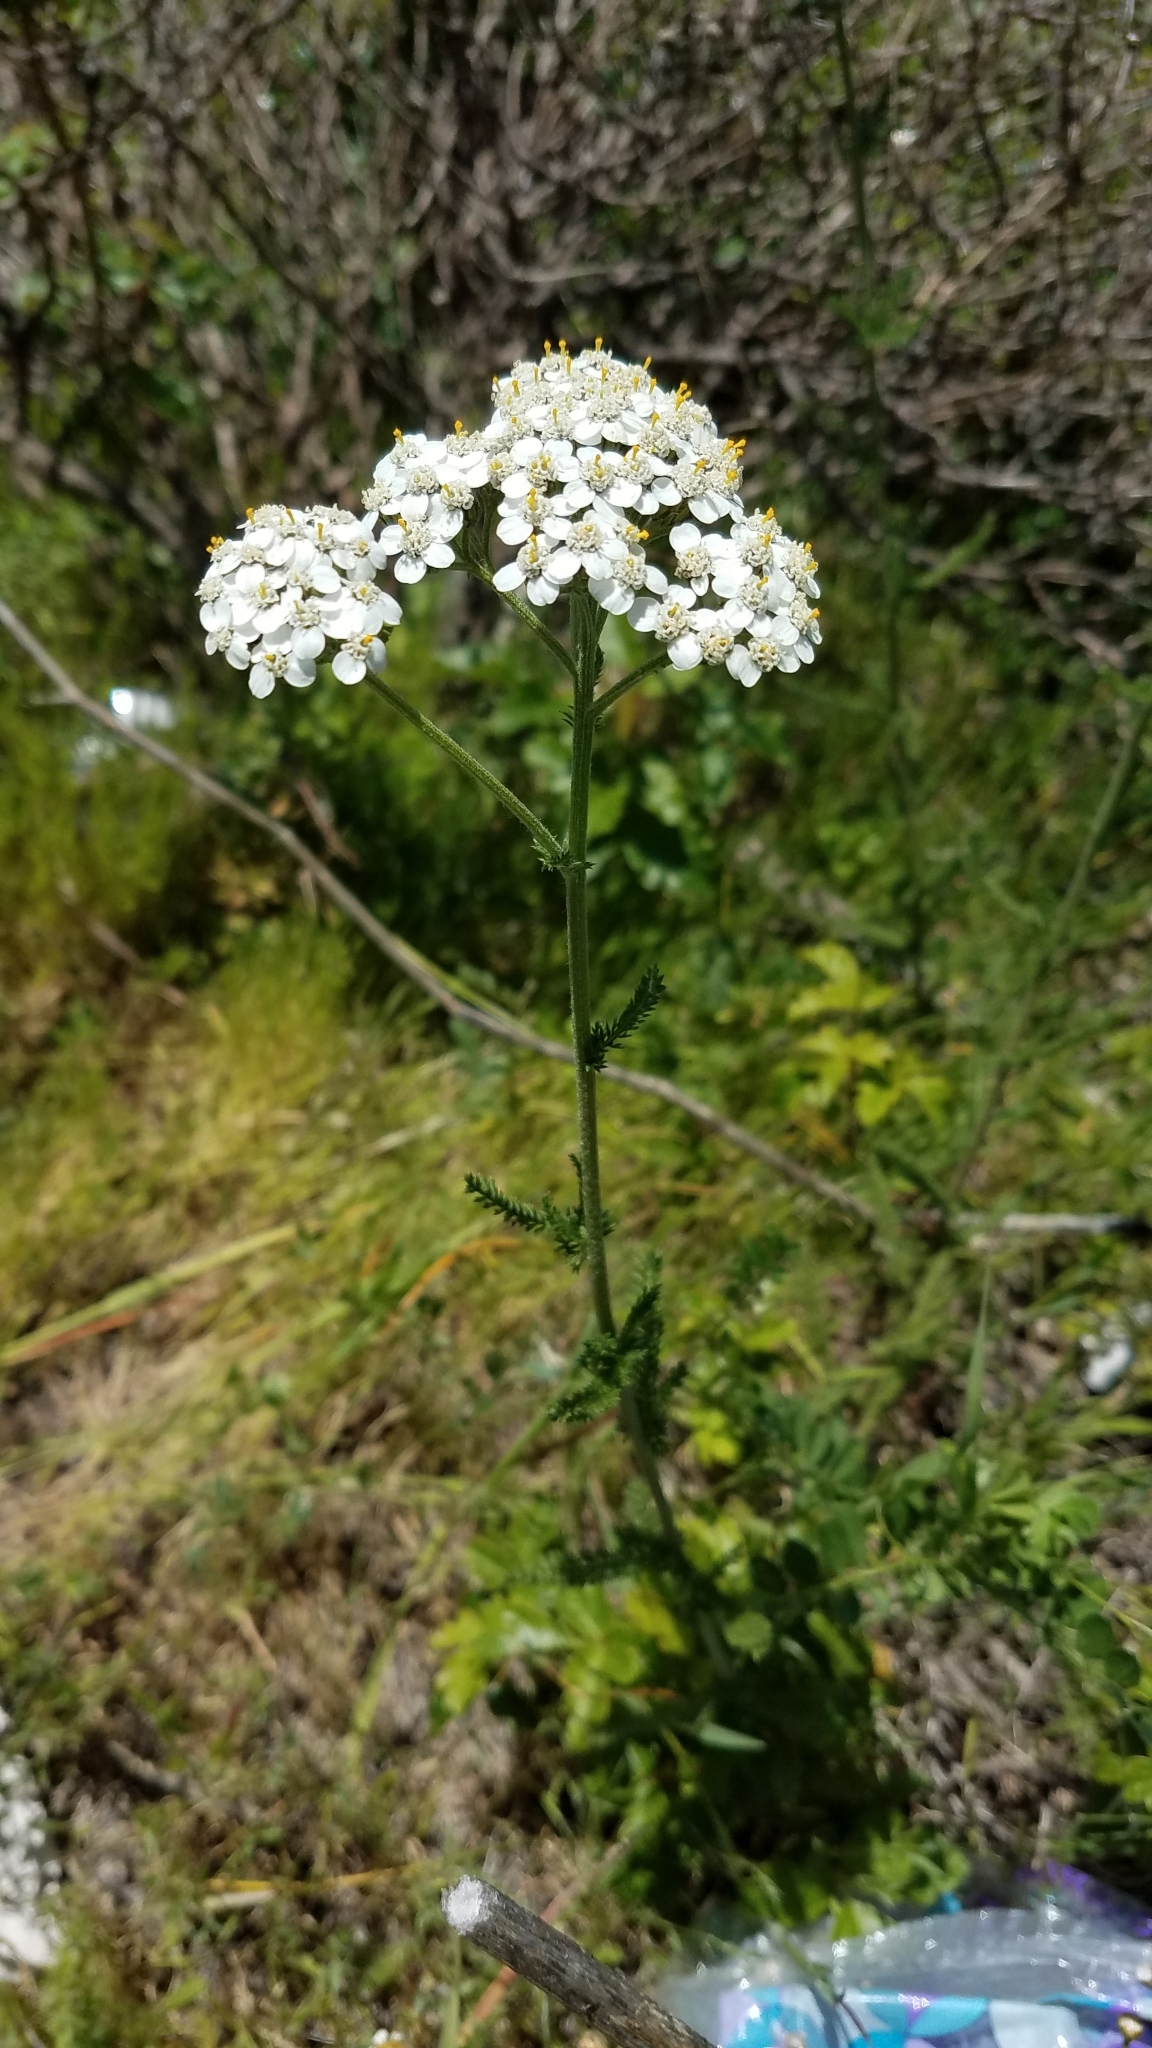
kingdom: Plantae
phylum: Tracheophyta
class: Magnoliopsida
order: Asterales
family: Asteraceae
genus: Achillea
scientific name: Achillea millefolium
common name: Yarrow
